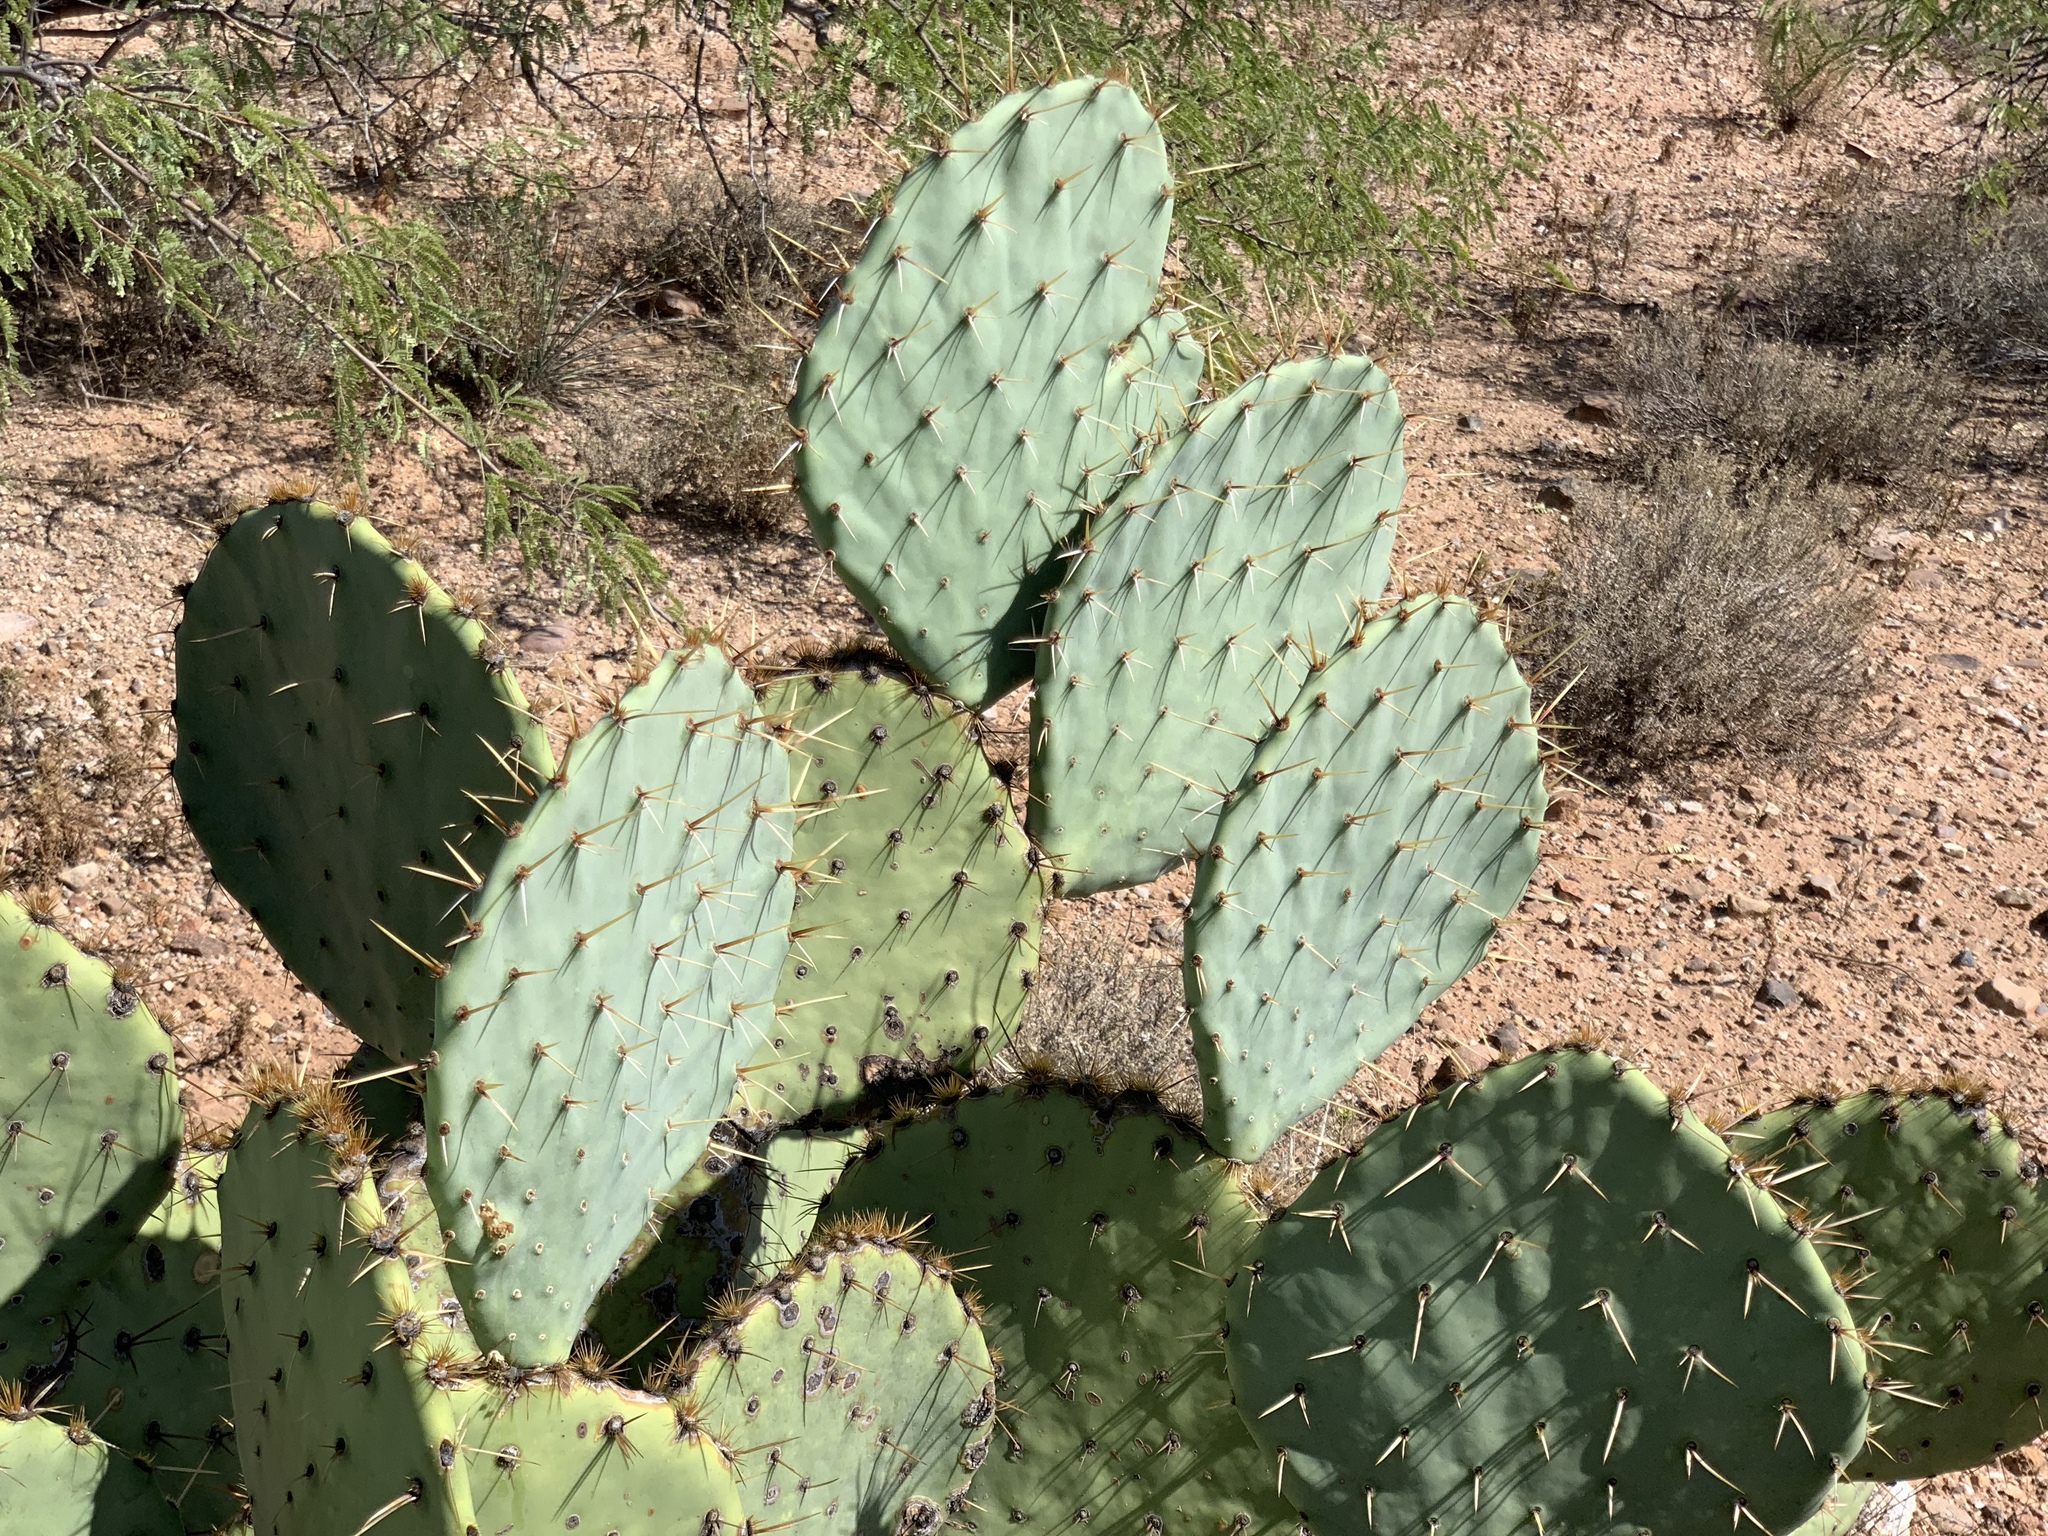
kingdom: Plantae
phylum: Tracheophyta
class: Magnoliopsida
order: Caryophyllales
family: Cactaceae
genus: Opuntia
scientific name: Opuntia engelmannii
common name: Cactus-apple
